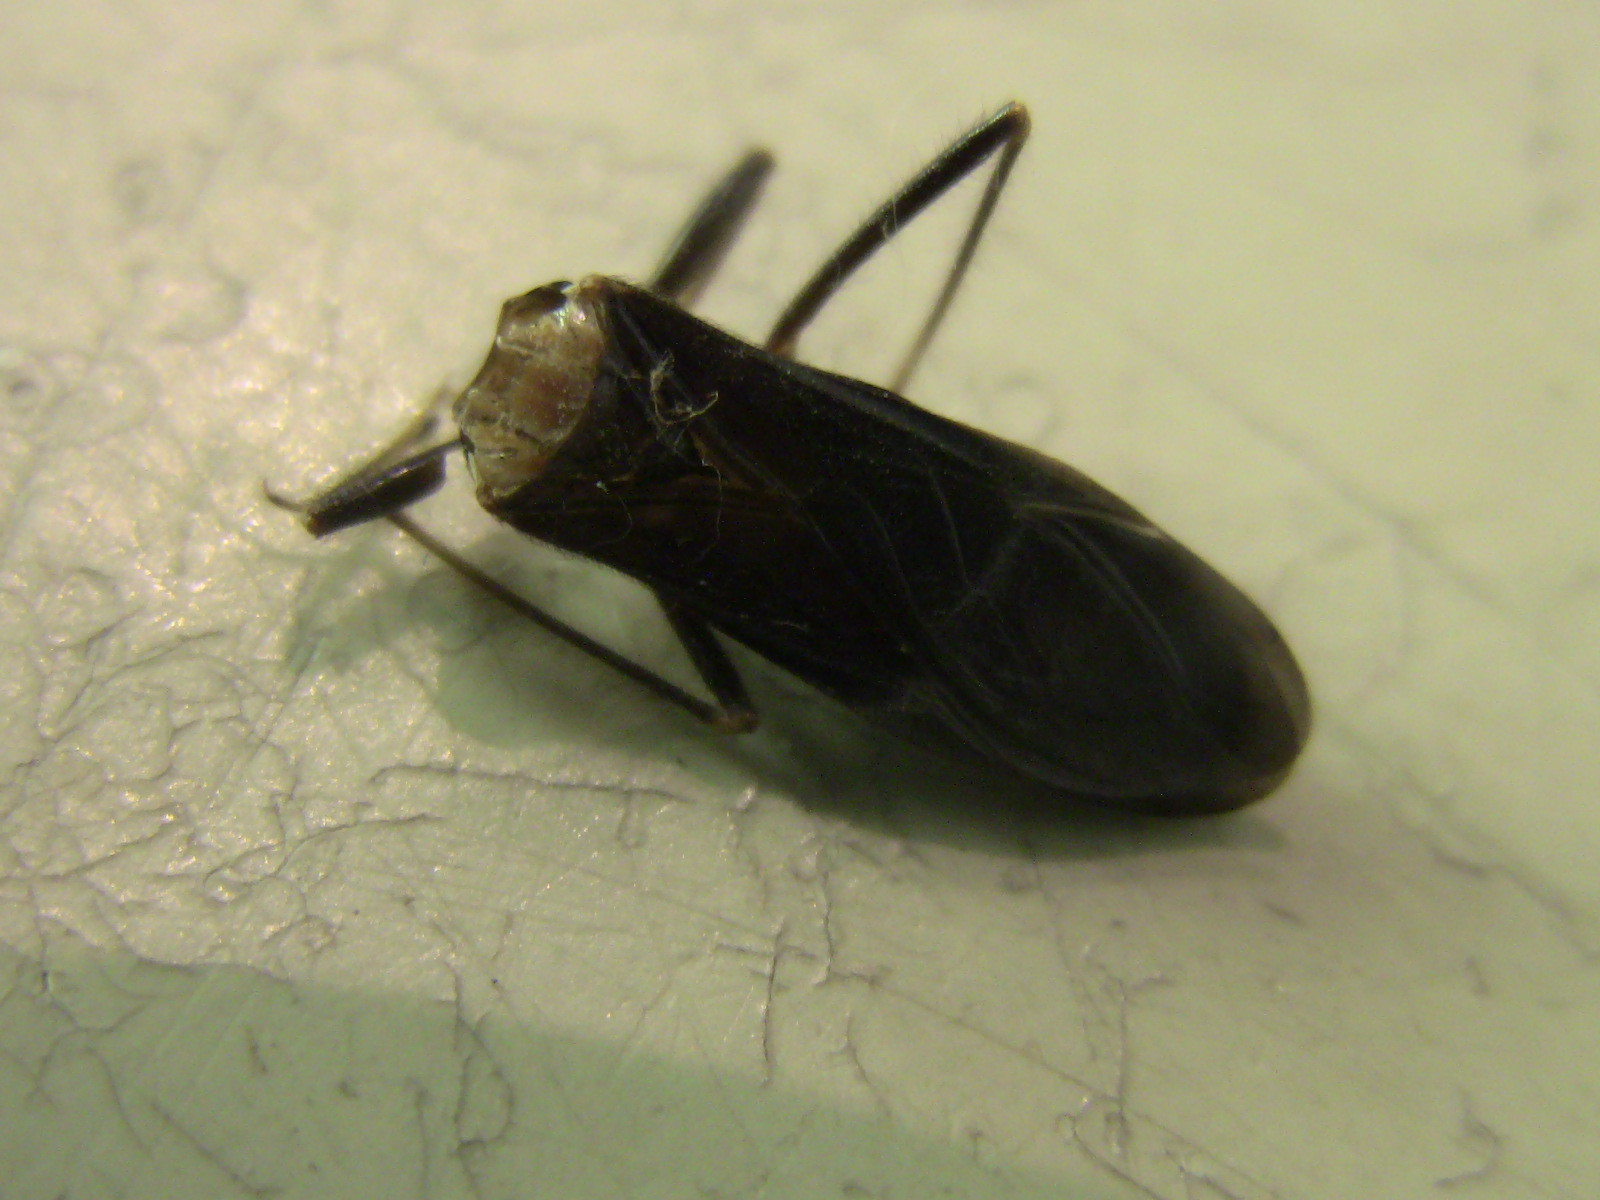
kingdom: Animalia
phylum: Arthropoda
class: Insecta
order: Hemiptera
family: Reduviidae
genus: Reduvius
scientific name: Reduvius personatus
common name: Masked hunter
